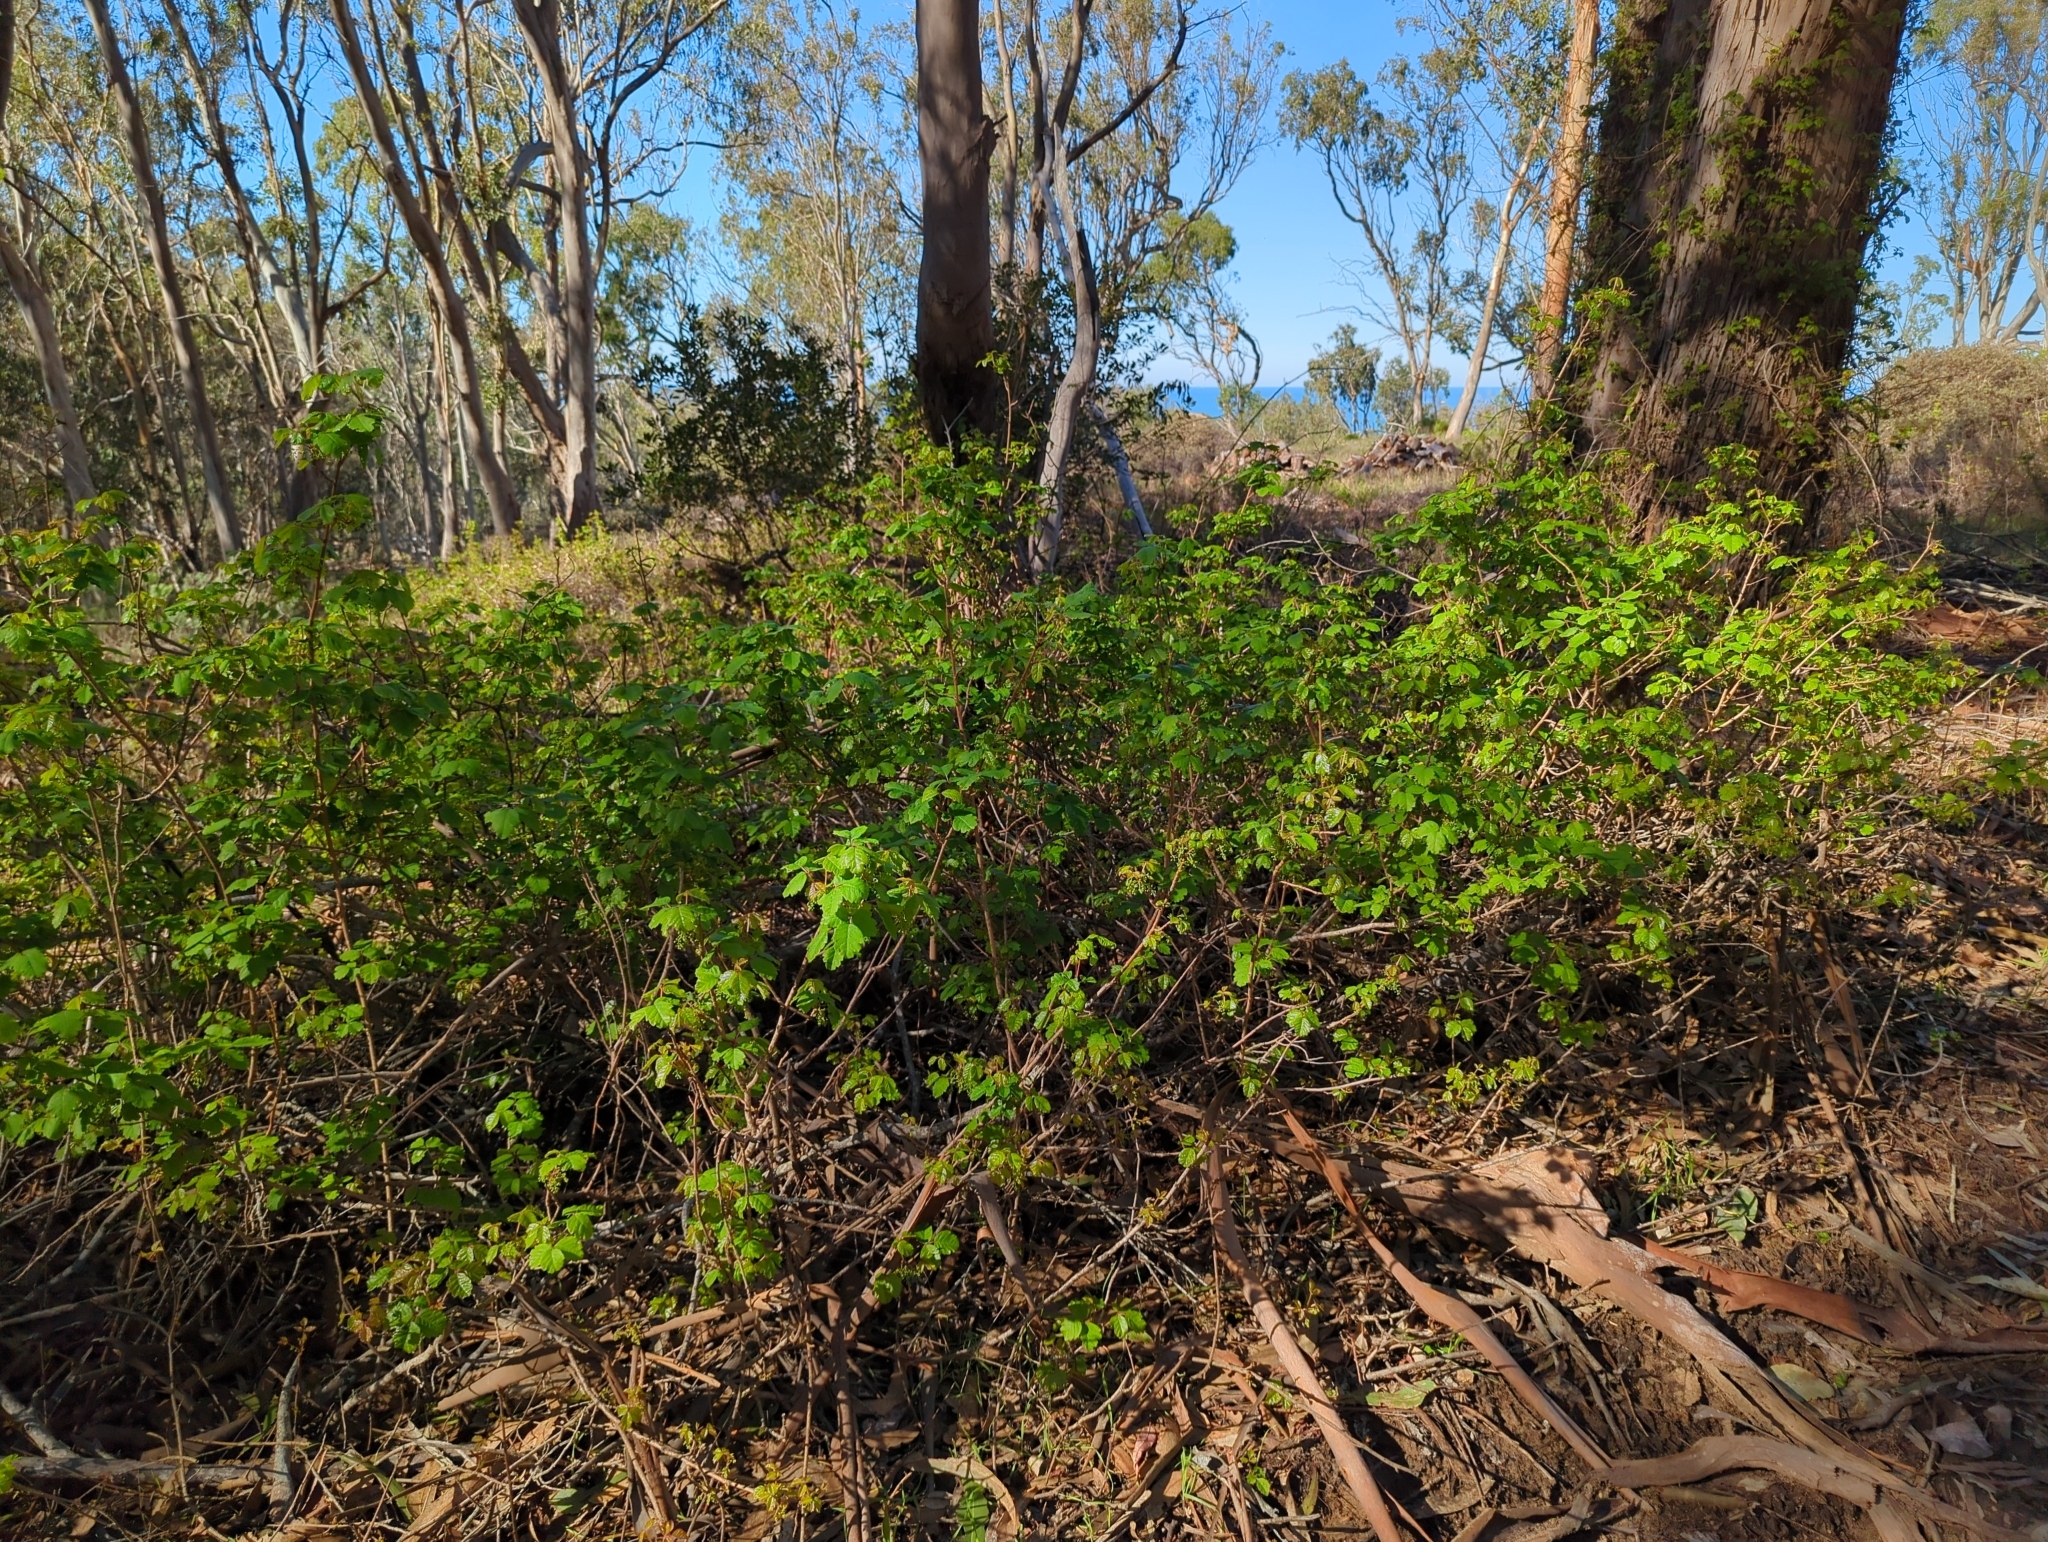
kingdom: Plantae
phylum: Tracheophyta
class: Magnoliopsida
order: Sapindales
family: Anacardiaceae
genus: Toxicodendron
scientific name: Toxicodendron diversilobum
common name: Pacific poison-oak
